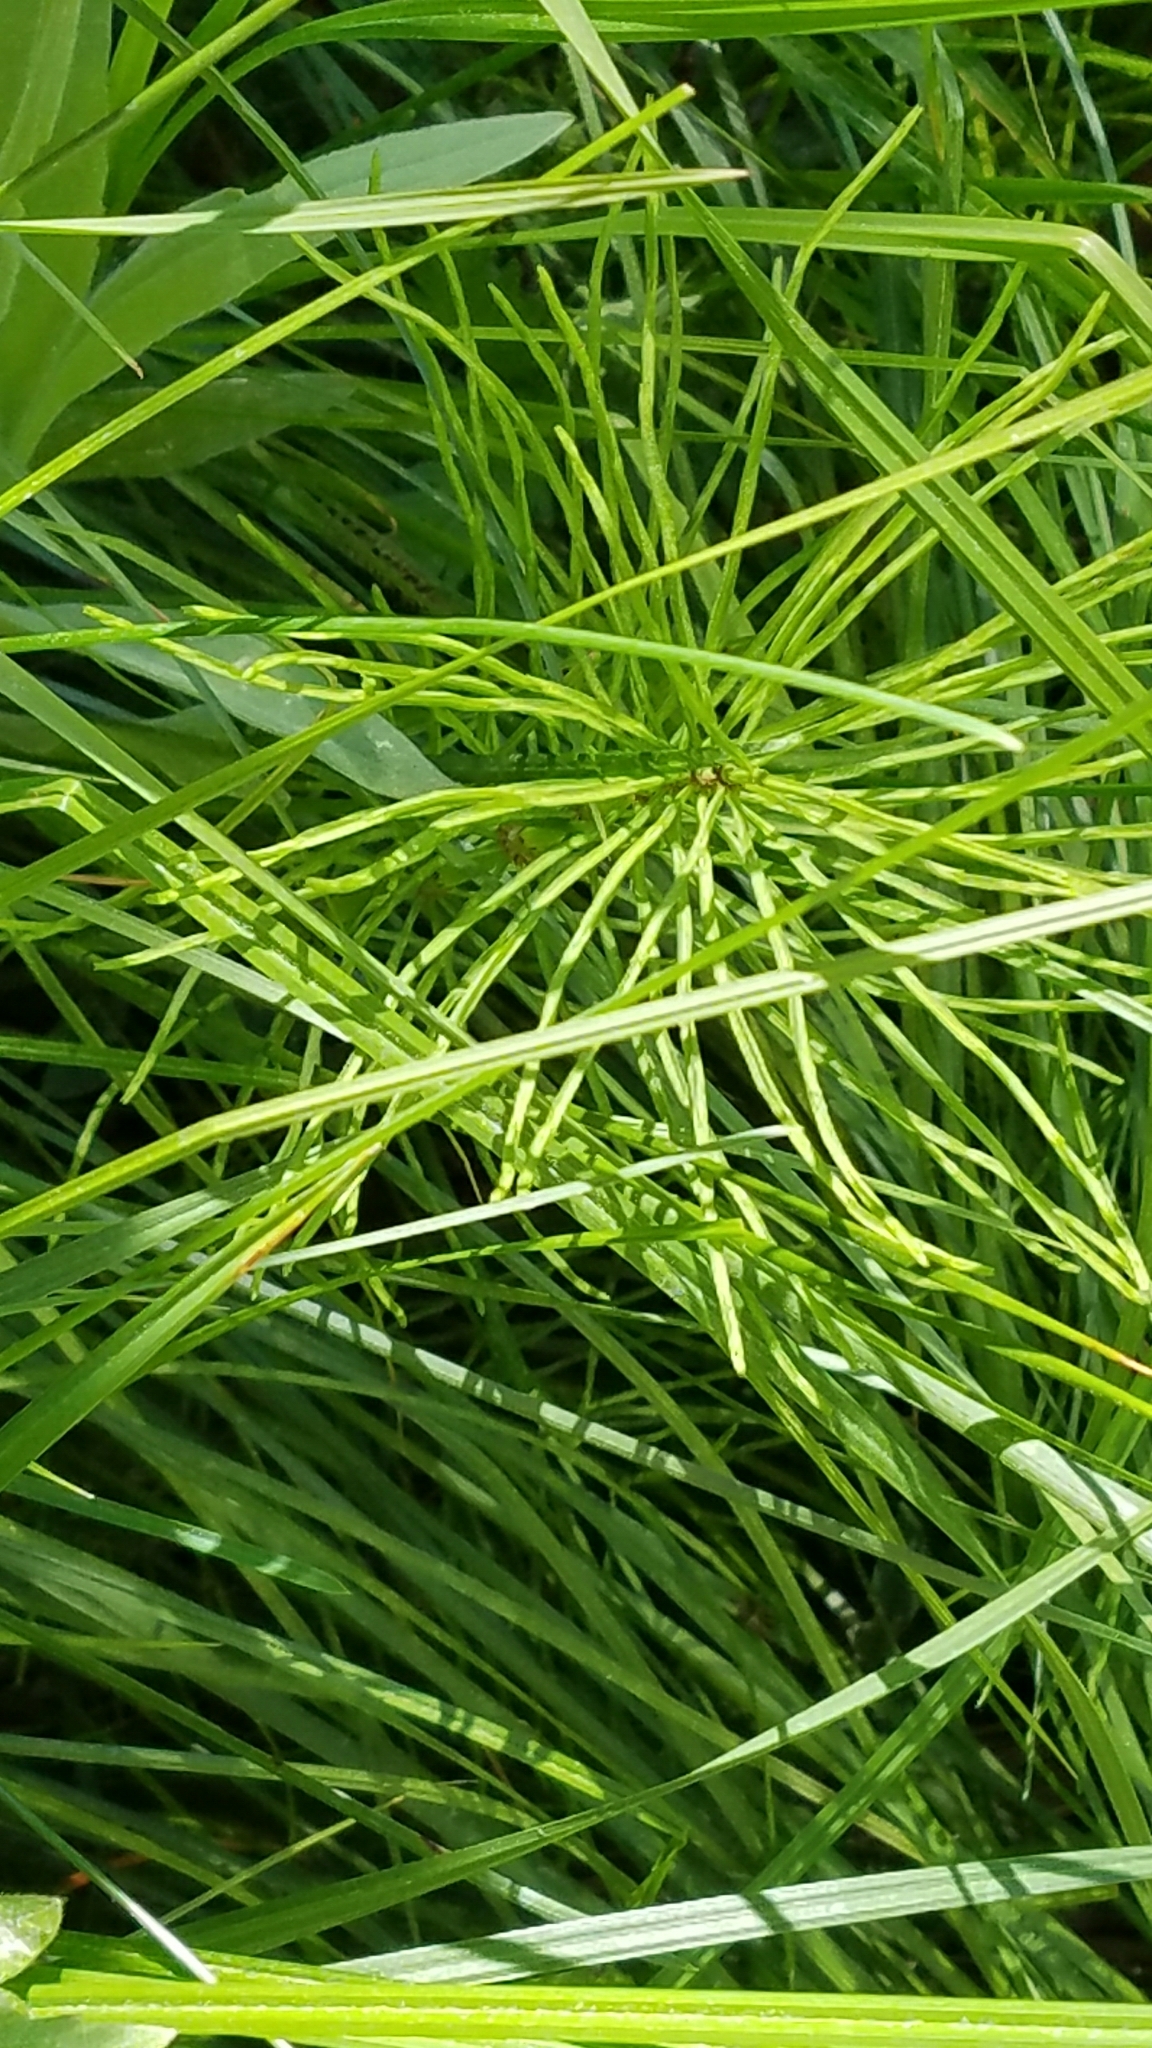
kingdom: Plantae
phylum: Tracheophyta
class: Polypodiopsida
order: Equisetales
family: Equisetaceae
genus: Equisetum
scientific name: Equisetum arvense
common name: Field horsetail
